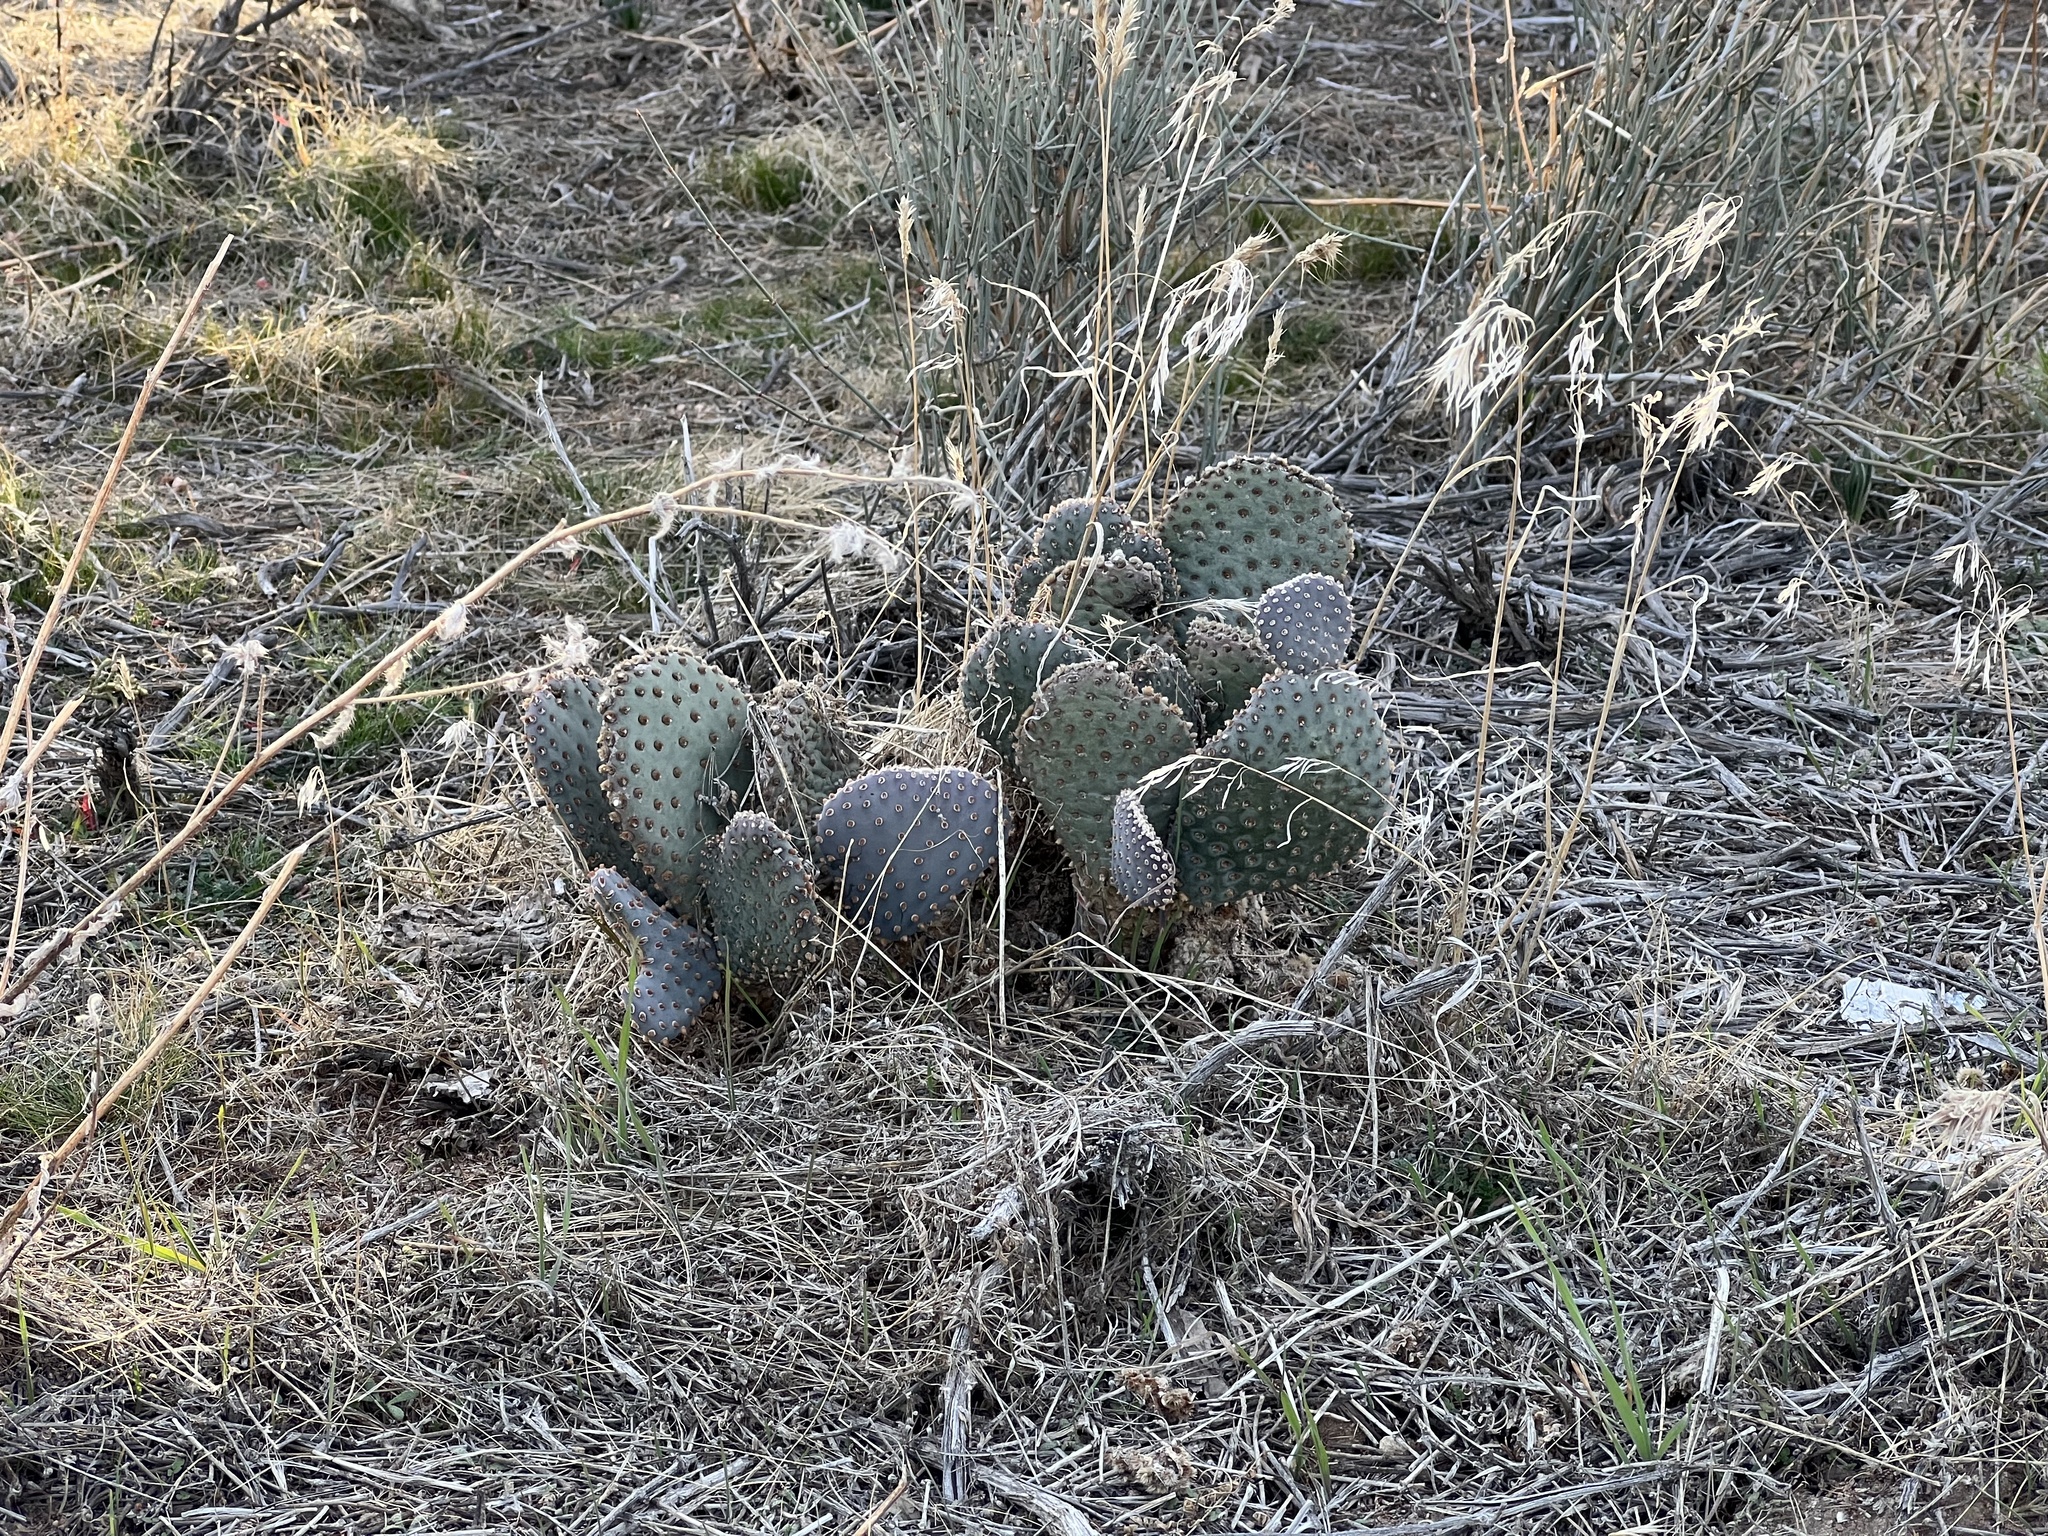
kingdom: Plantae
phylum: Tracheophyta
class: Magnoliopsida
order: Caryophyllales
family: Cactaceae
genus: Opuntia
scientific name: Opuntia basilaris
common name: Beavertail prickly-pear
